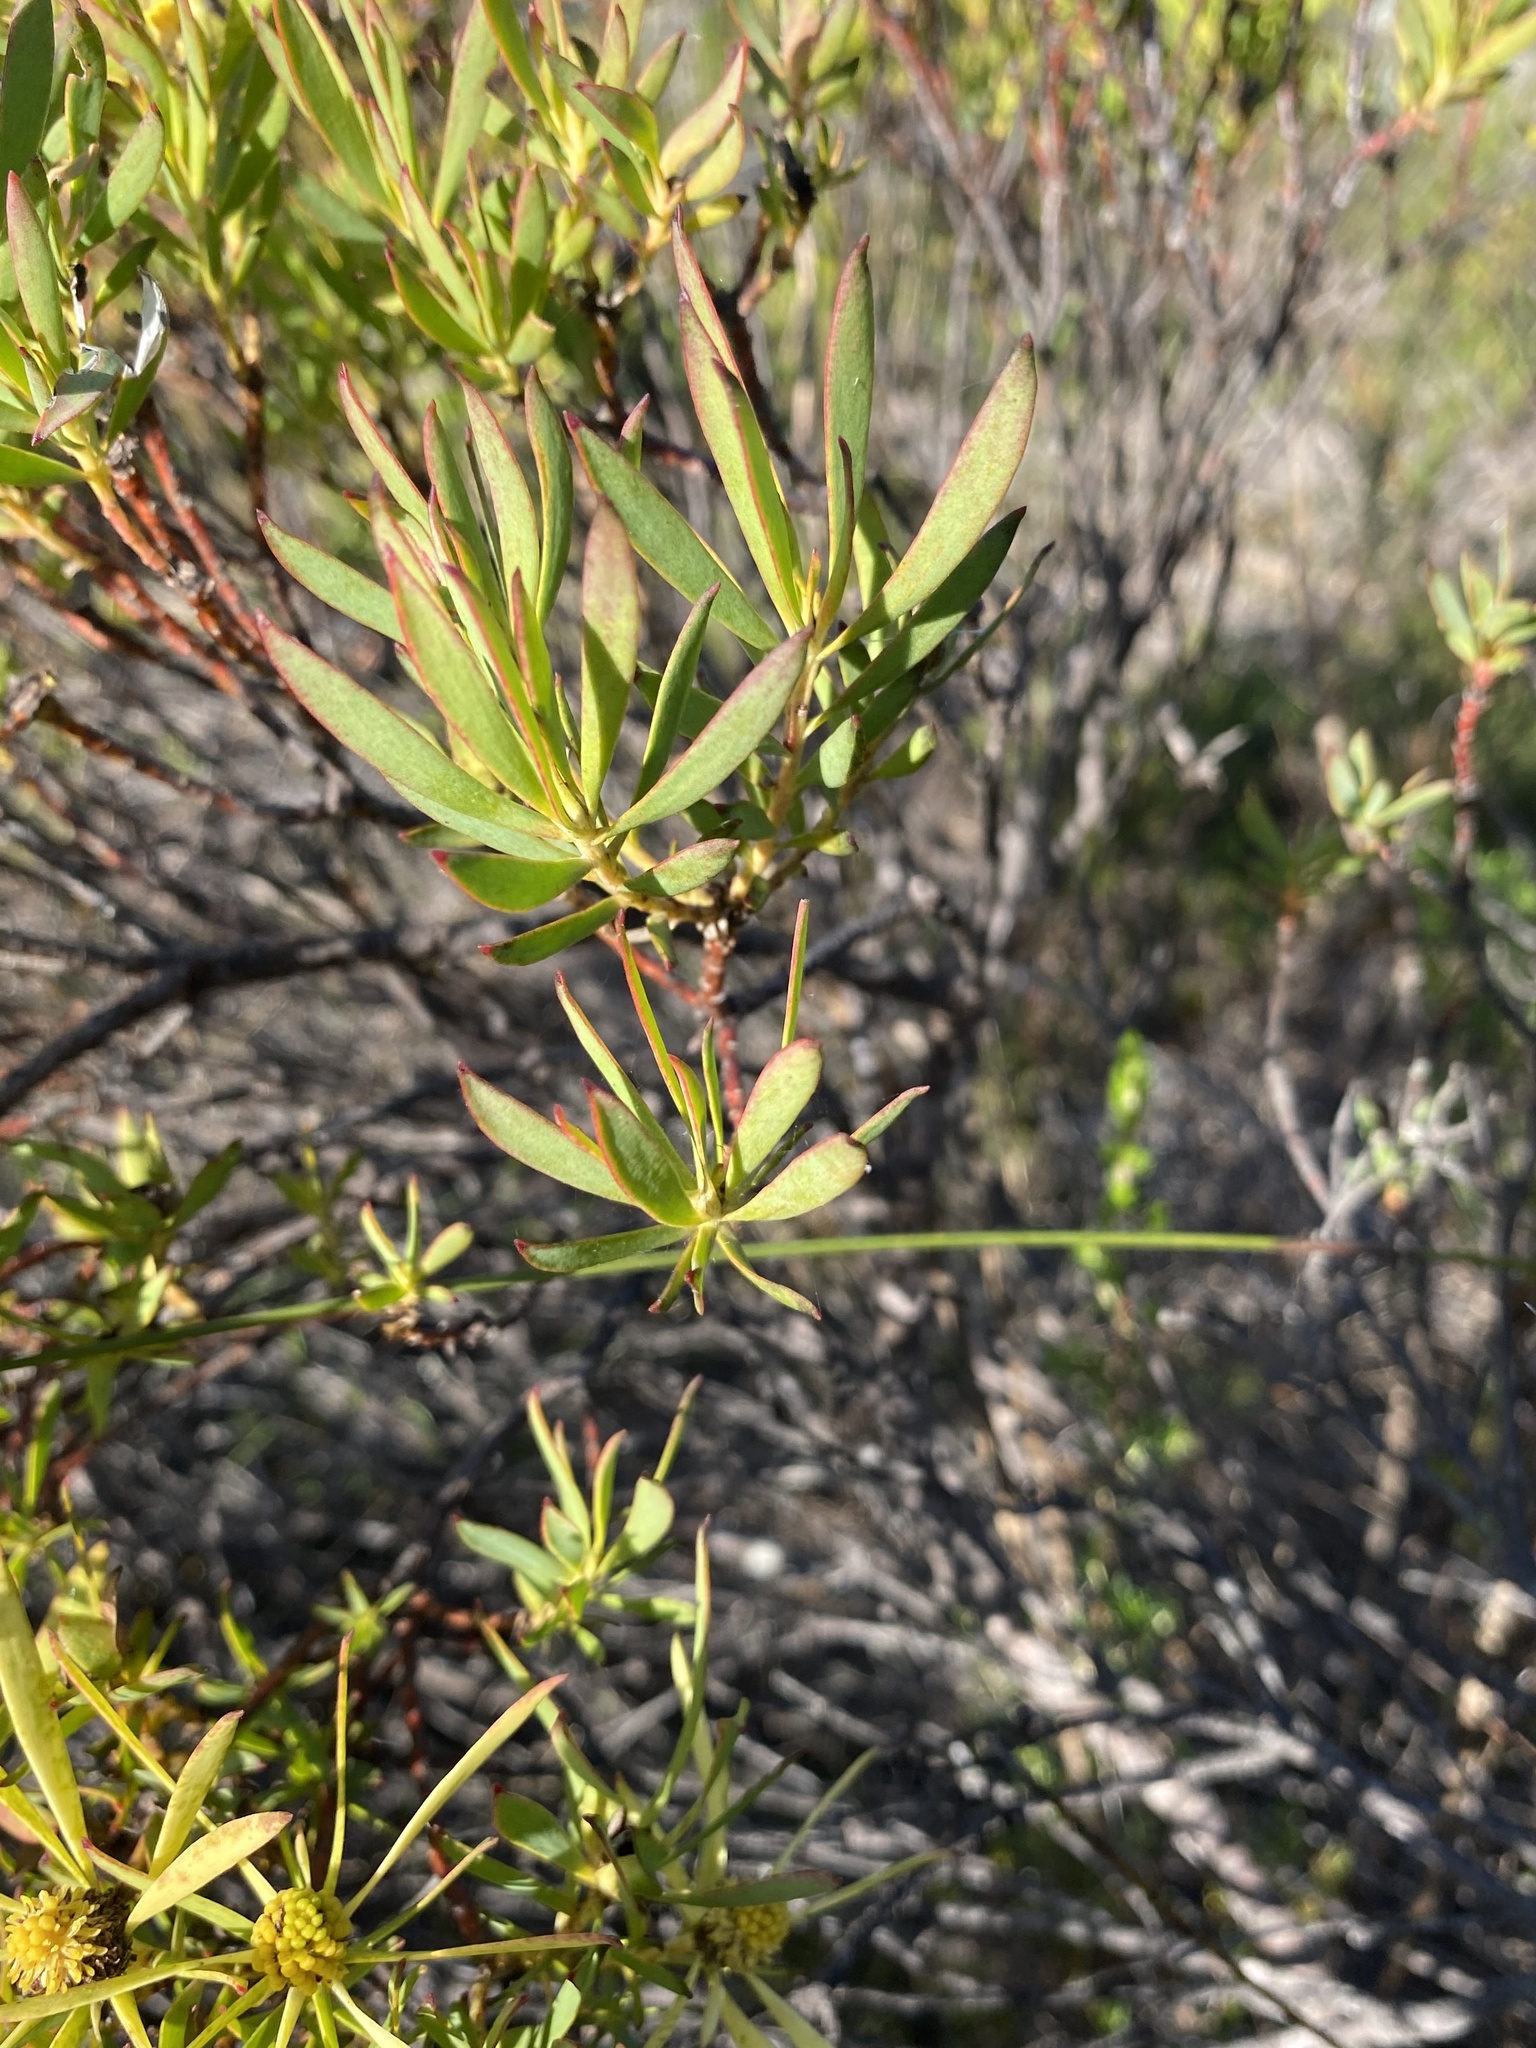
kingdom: Plantae
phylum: Tracheophyta
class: Magnoliopsida
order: Proteales
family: Proteaceae
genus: Leucadendron
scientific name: Leucadendron salignum
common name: Common sunshine conebush
